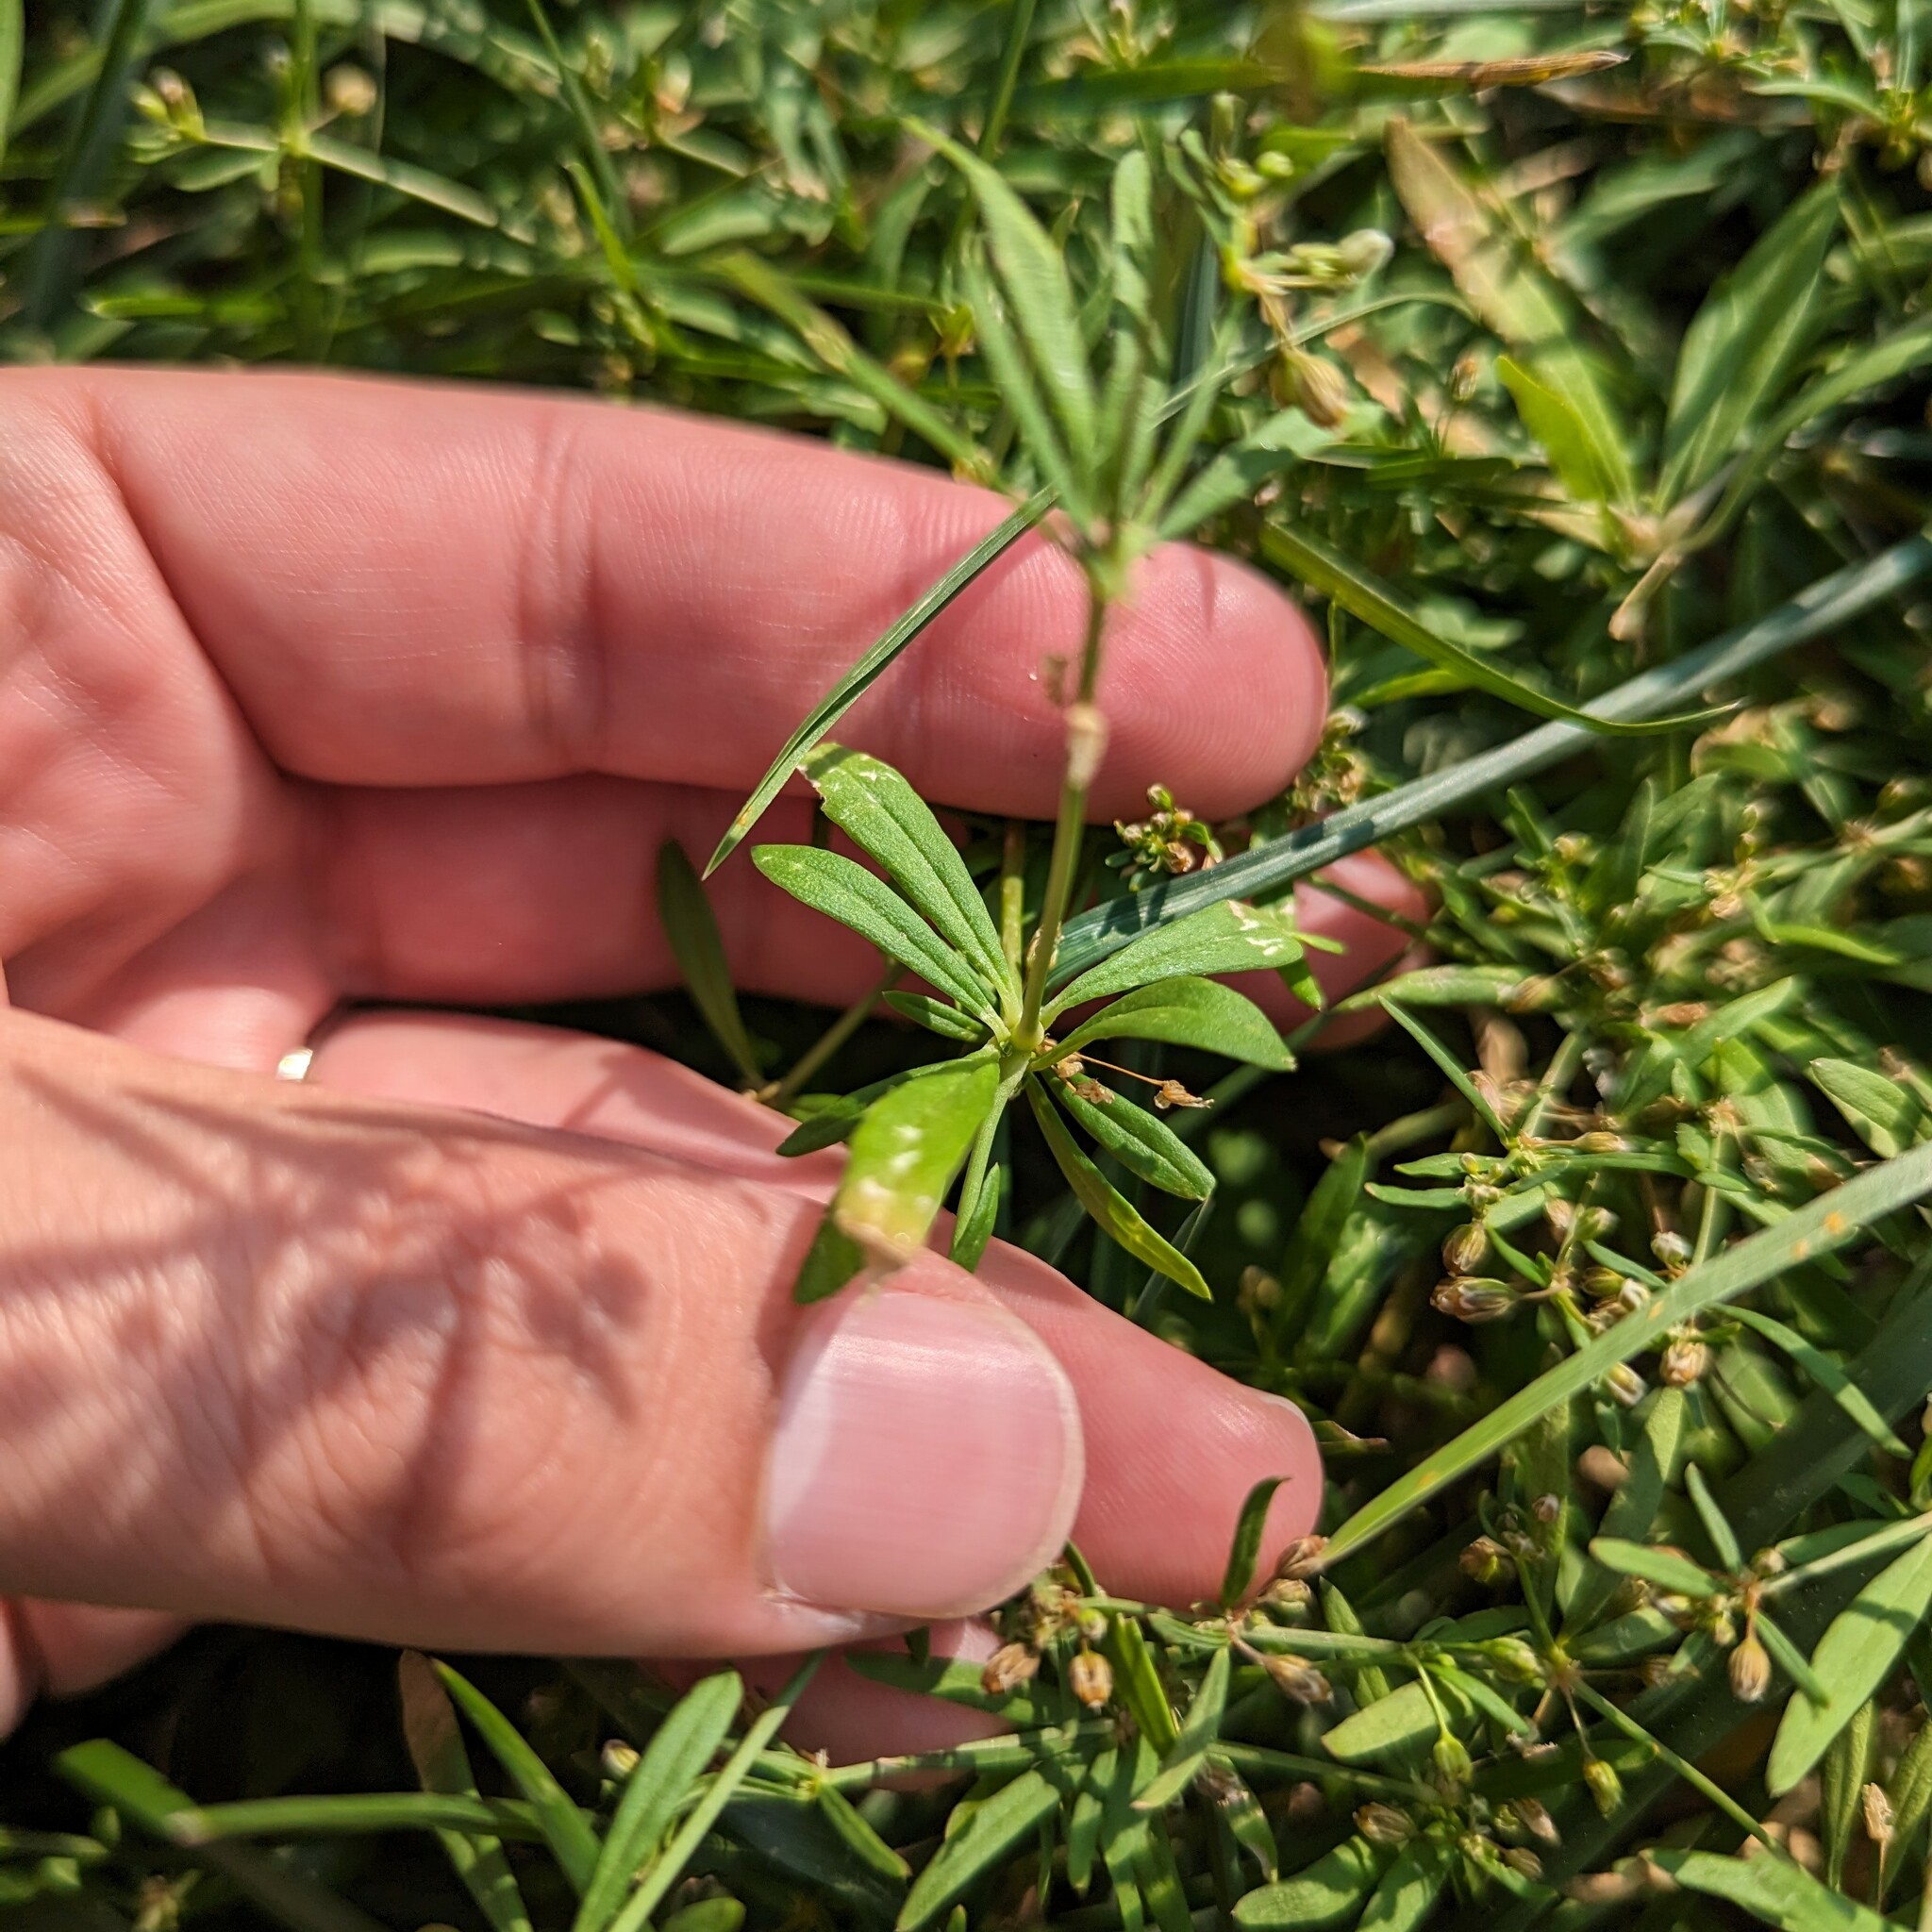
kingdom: Plantae
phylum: Tracheophyta
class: Magnoliopsida
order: Caryophyllales
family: Molluginaceae
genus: Mollugo
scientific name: Mollugo verticillata
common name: Green carpetweed
